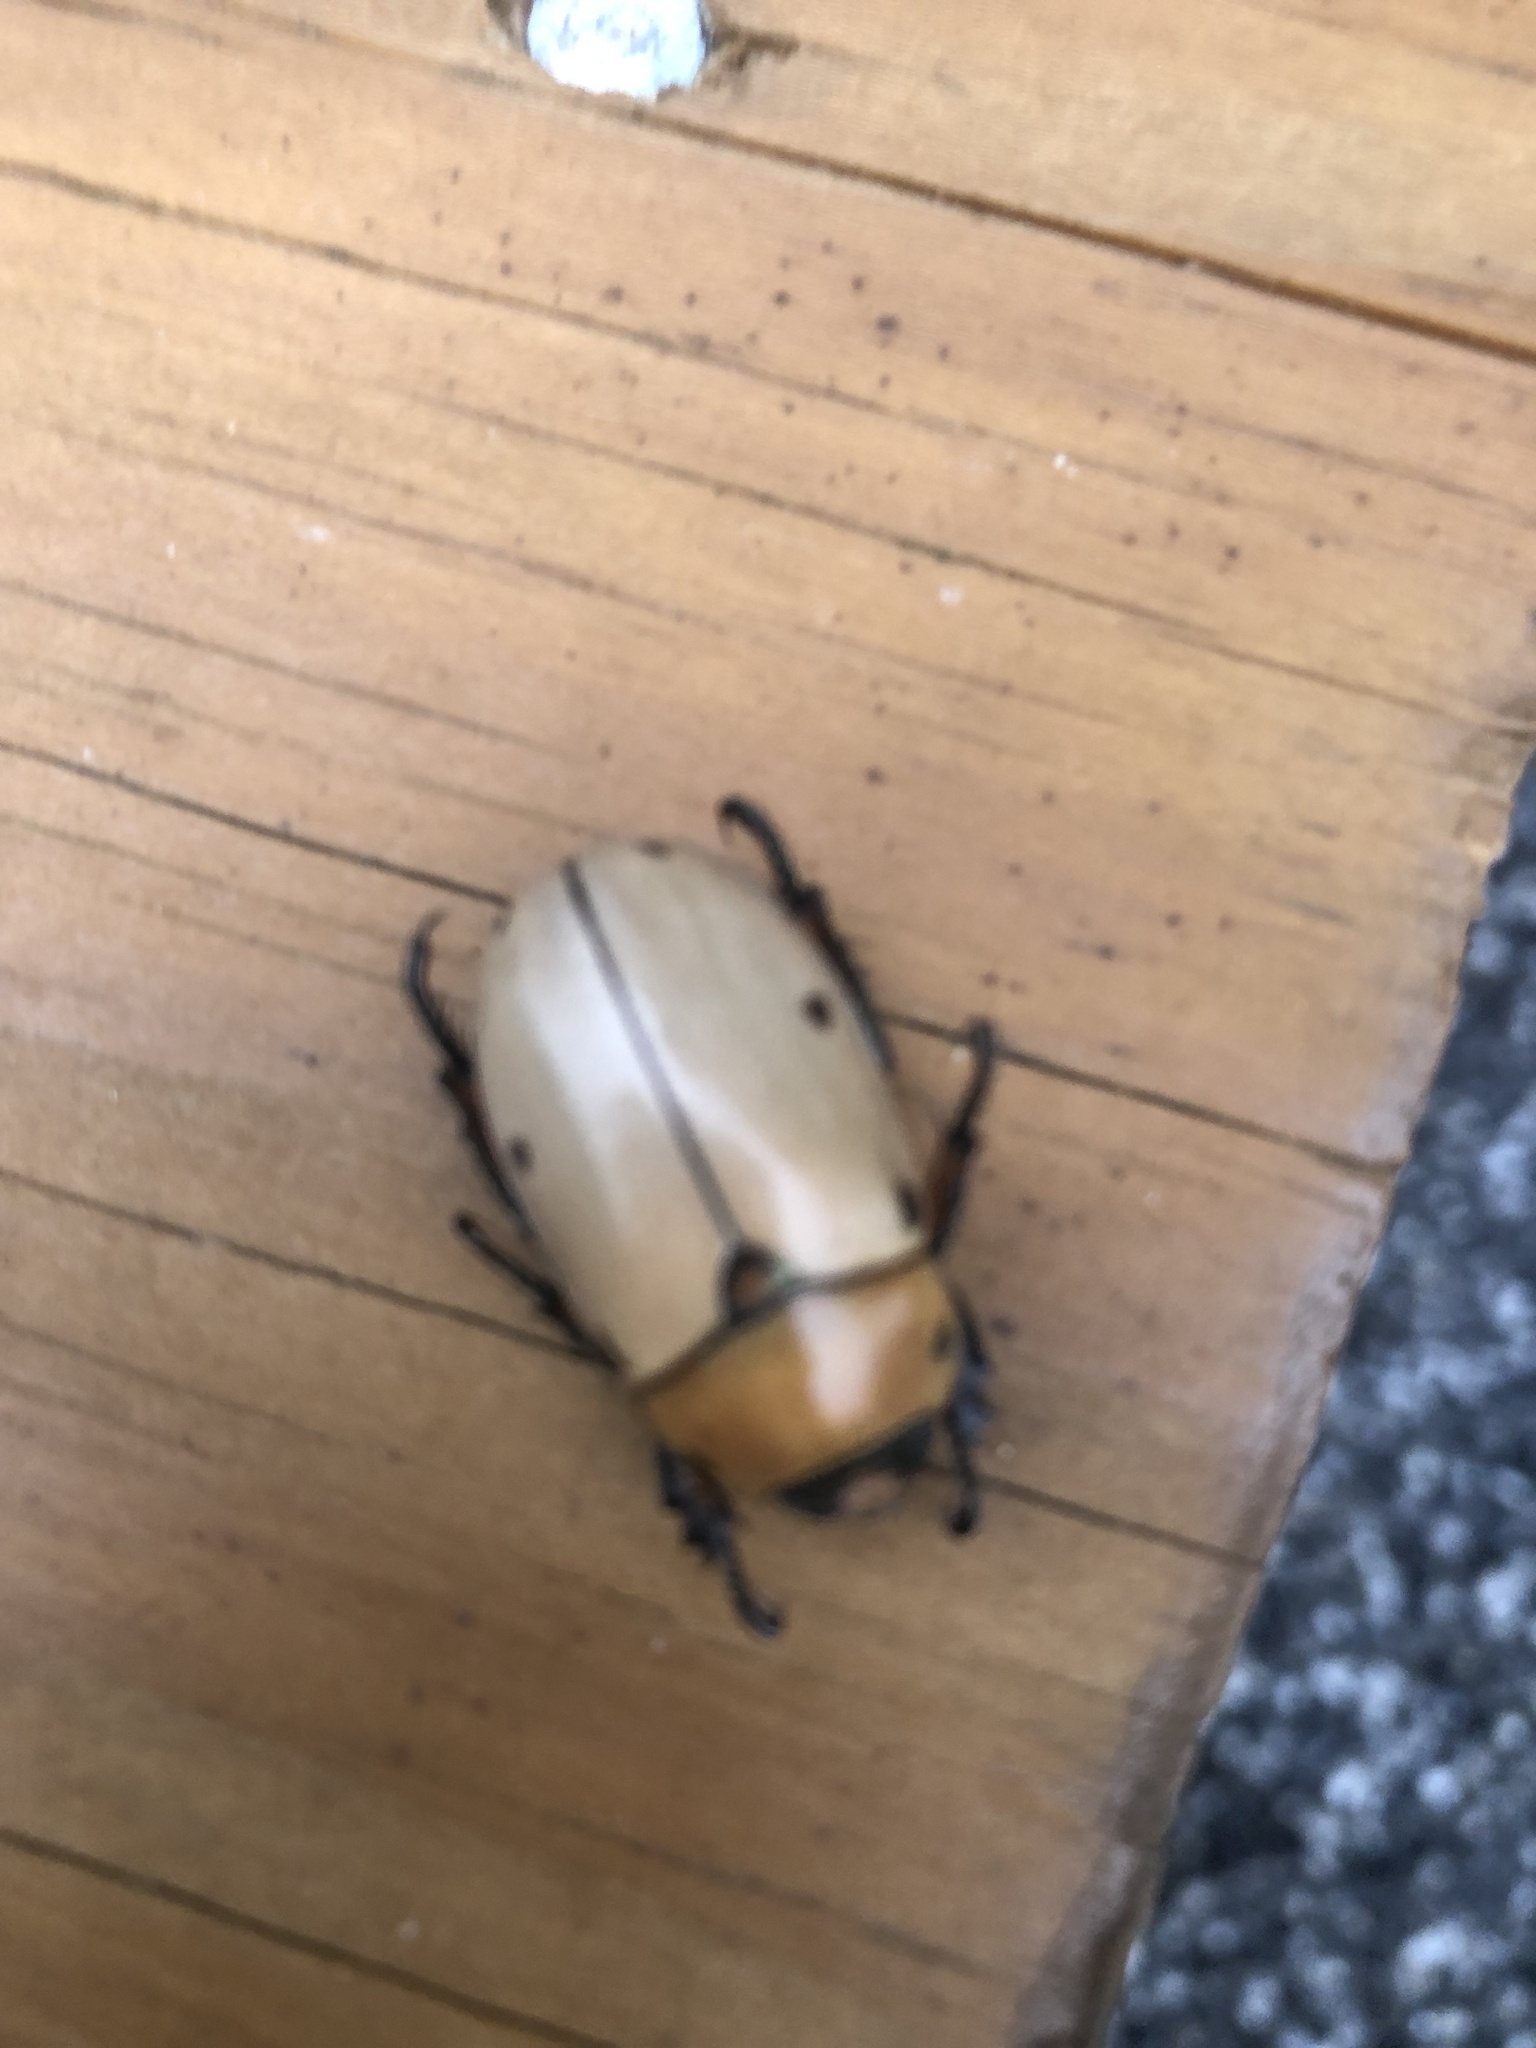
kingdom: Animalia
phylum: Arthropoda
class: Insecta
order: Coleoptera
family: Scarabaeidae
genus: Pelidnota
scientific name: Pelidnota punctata
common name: Grapevine beetle
